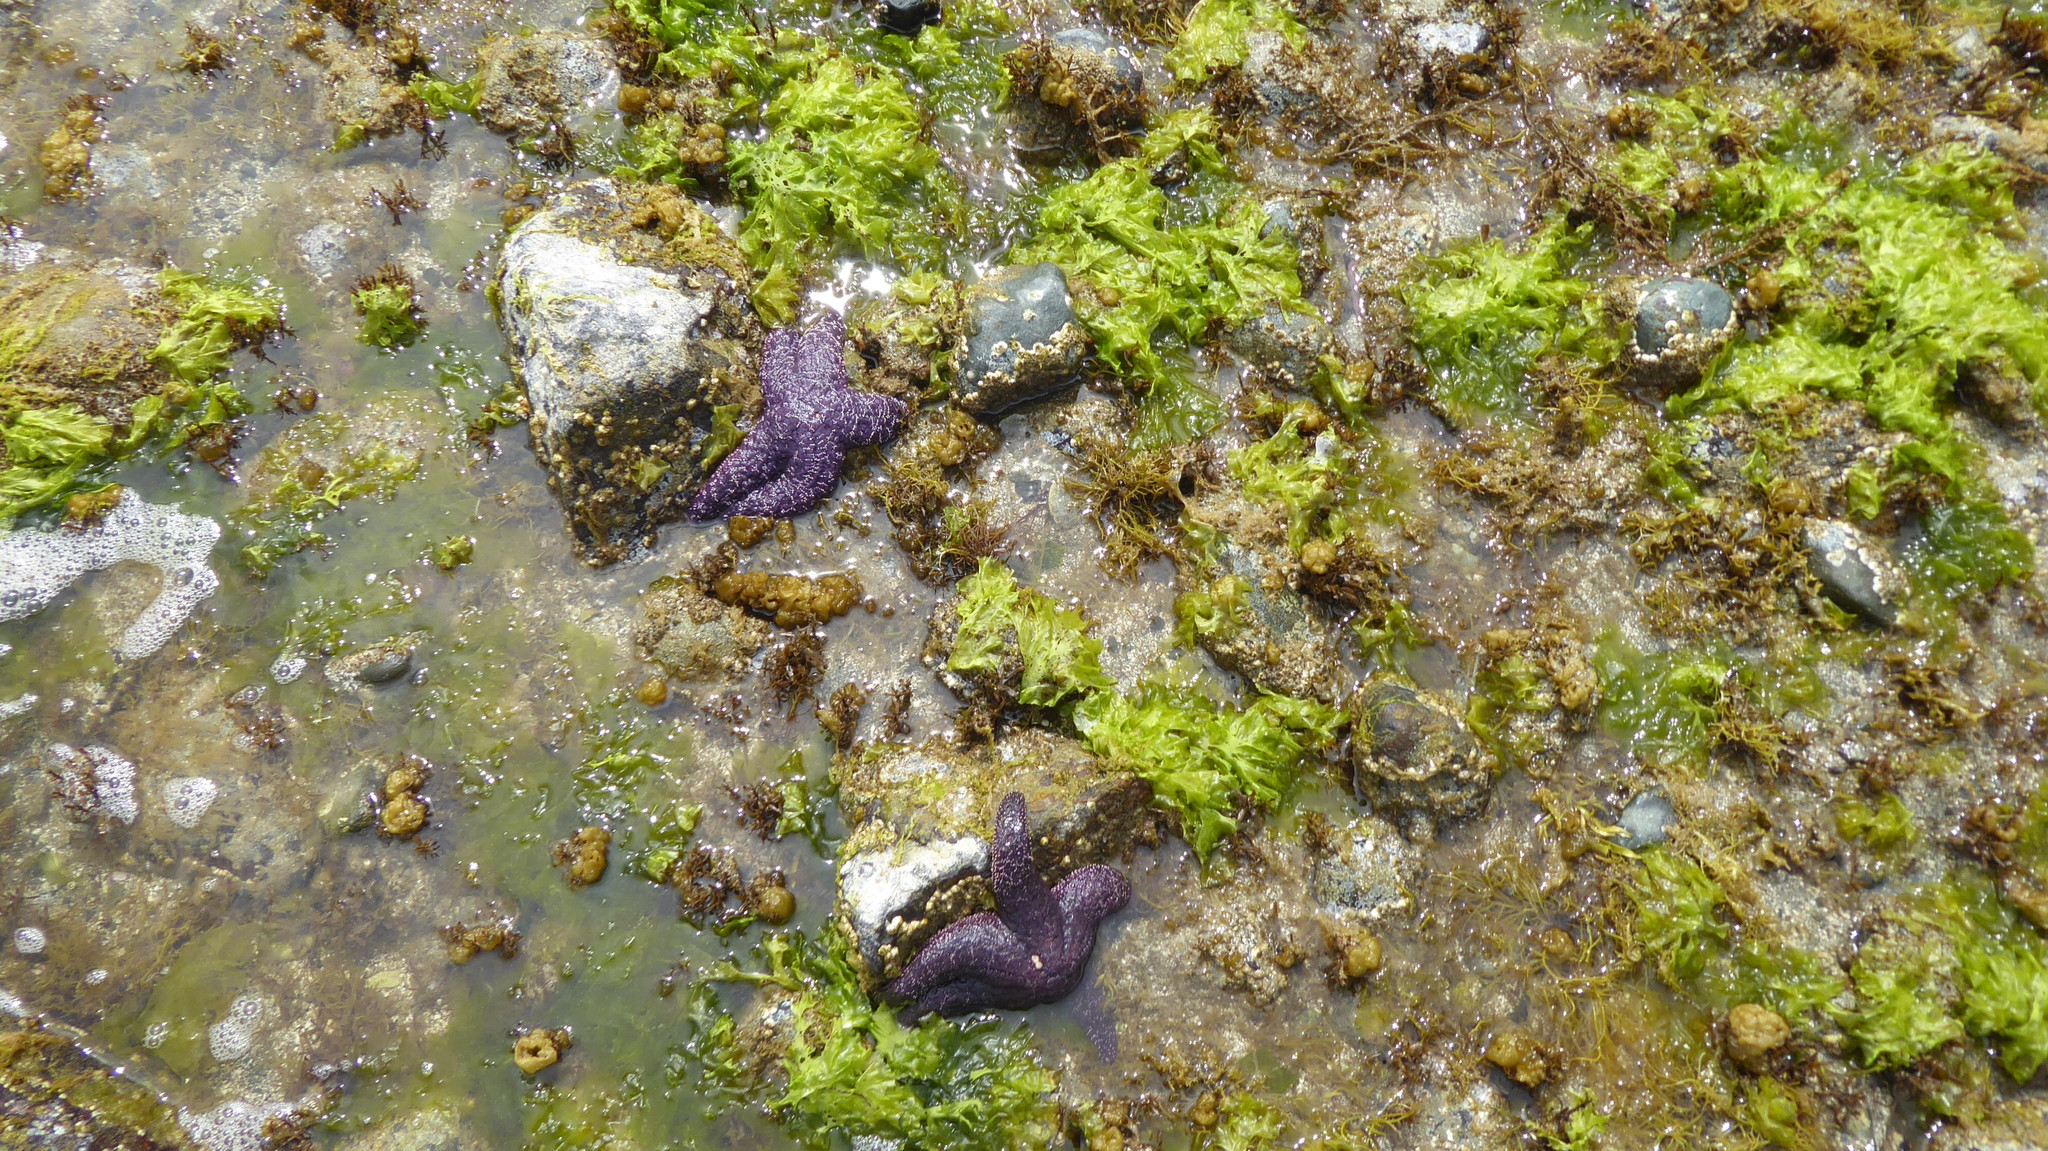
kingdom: Animalia
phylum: Echinodermata
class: Asteroidea
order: Forcipulatida
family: Asteriidae
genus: Pisaster
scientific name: Pisaster ochraceus
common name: Ochre stars
